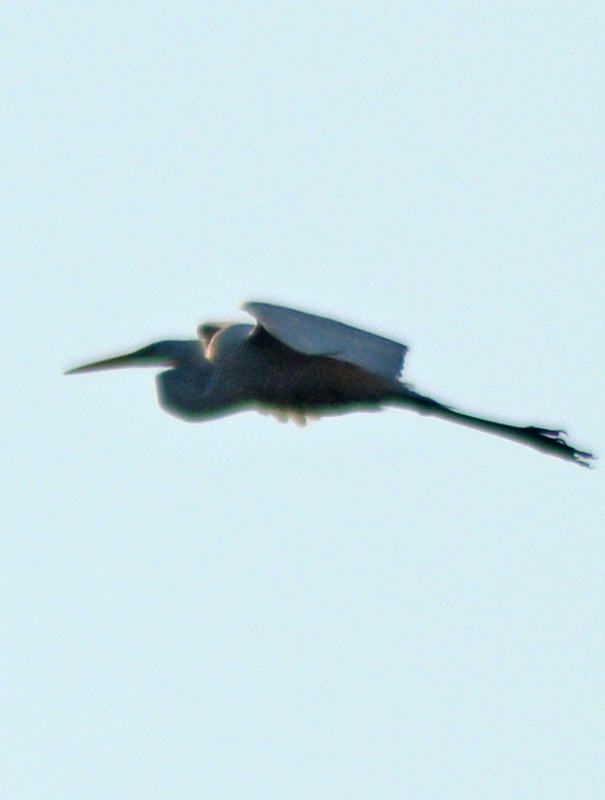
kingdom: Animalia
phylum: Chordata
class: Aves
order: Pelecaniformes
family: Ardeidae
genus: Ardea
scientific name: Ardea alba
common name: Great egret
